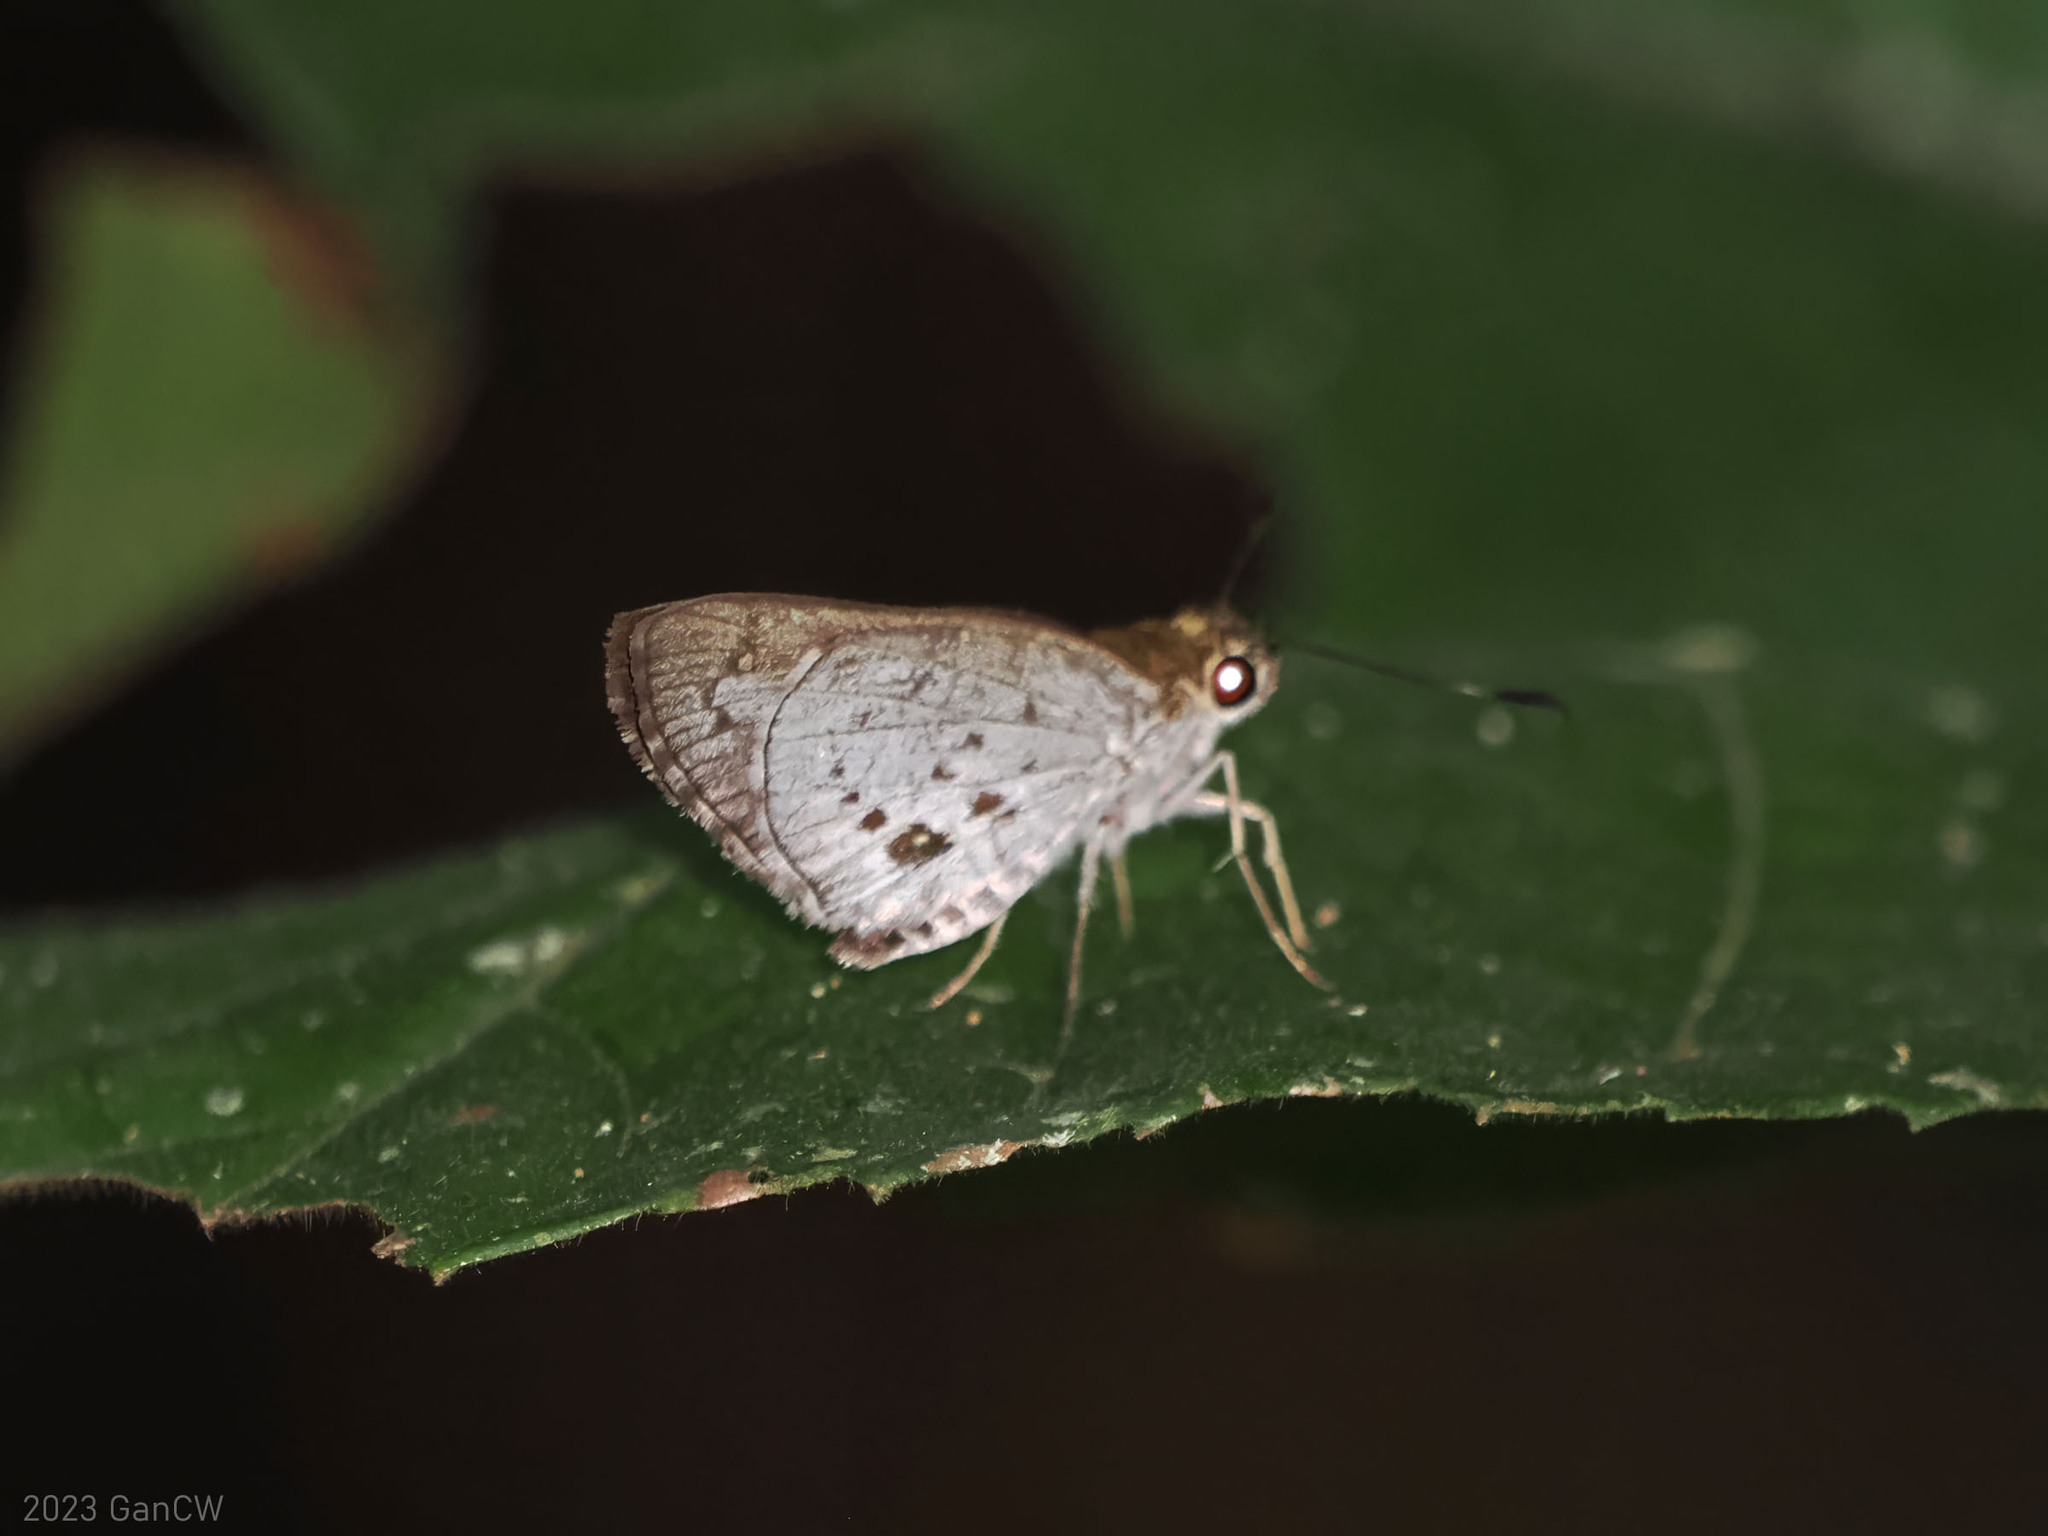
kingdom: Animalia
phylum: Arthropoda
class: Insecta
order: Lepidoptera
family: Hesperiidae
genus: Suastus
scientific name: Suastus minuta
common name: Small palm bob
